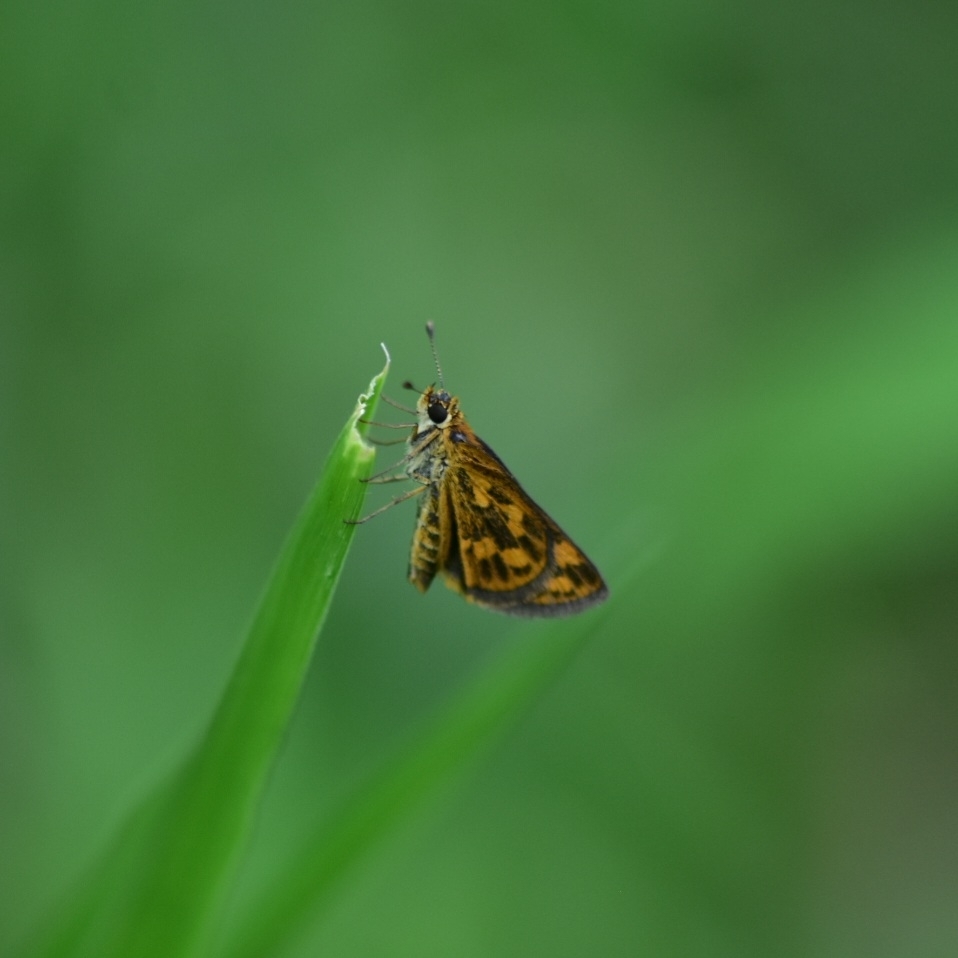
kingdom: Animalia
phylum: Arthropoda
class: Insecta
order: Lepidoptera
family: Hesperiidae
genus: Taractrocera
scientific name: Taractrocera ceramas
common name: Tamil grass dart
